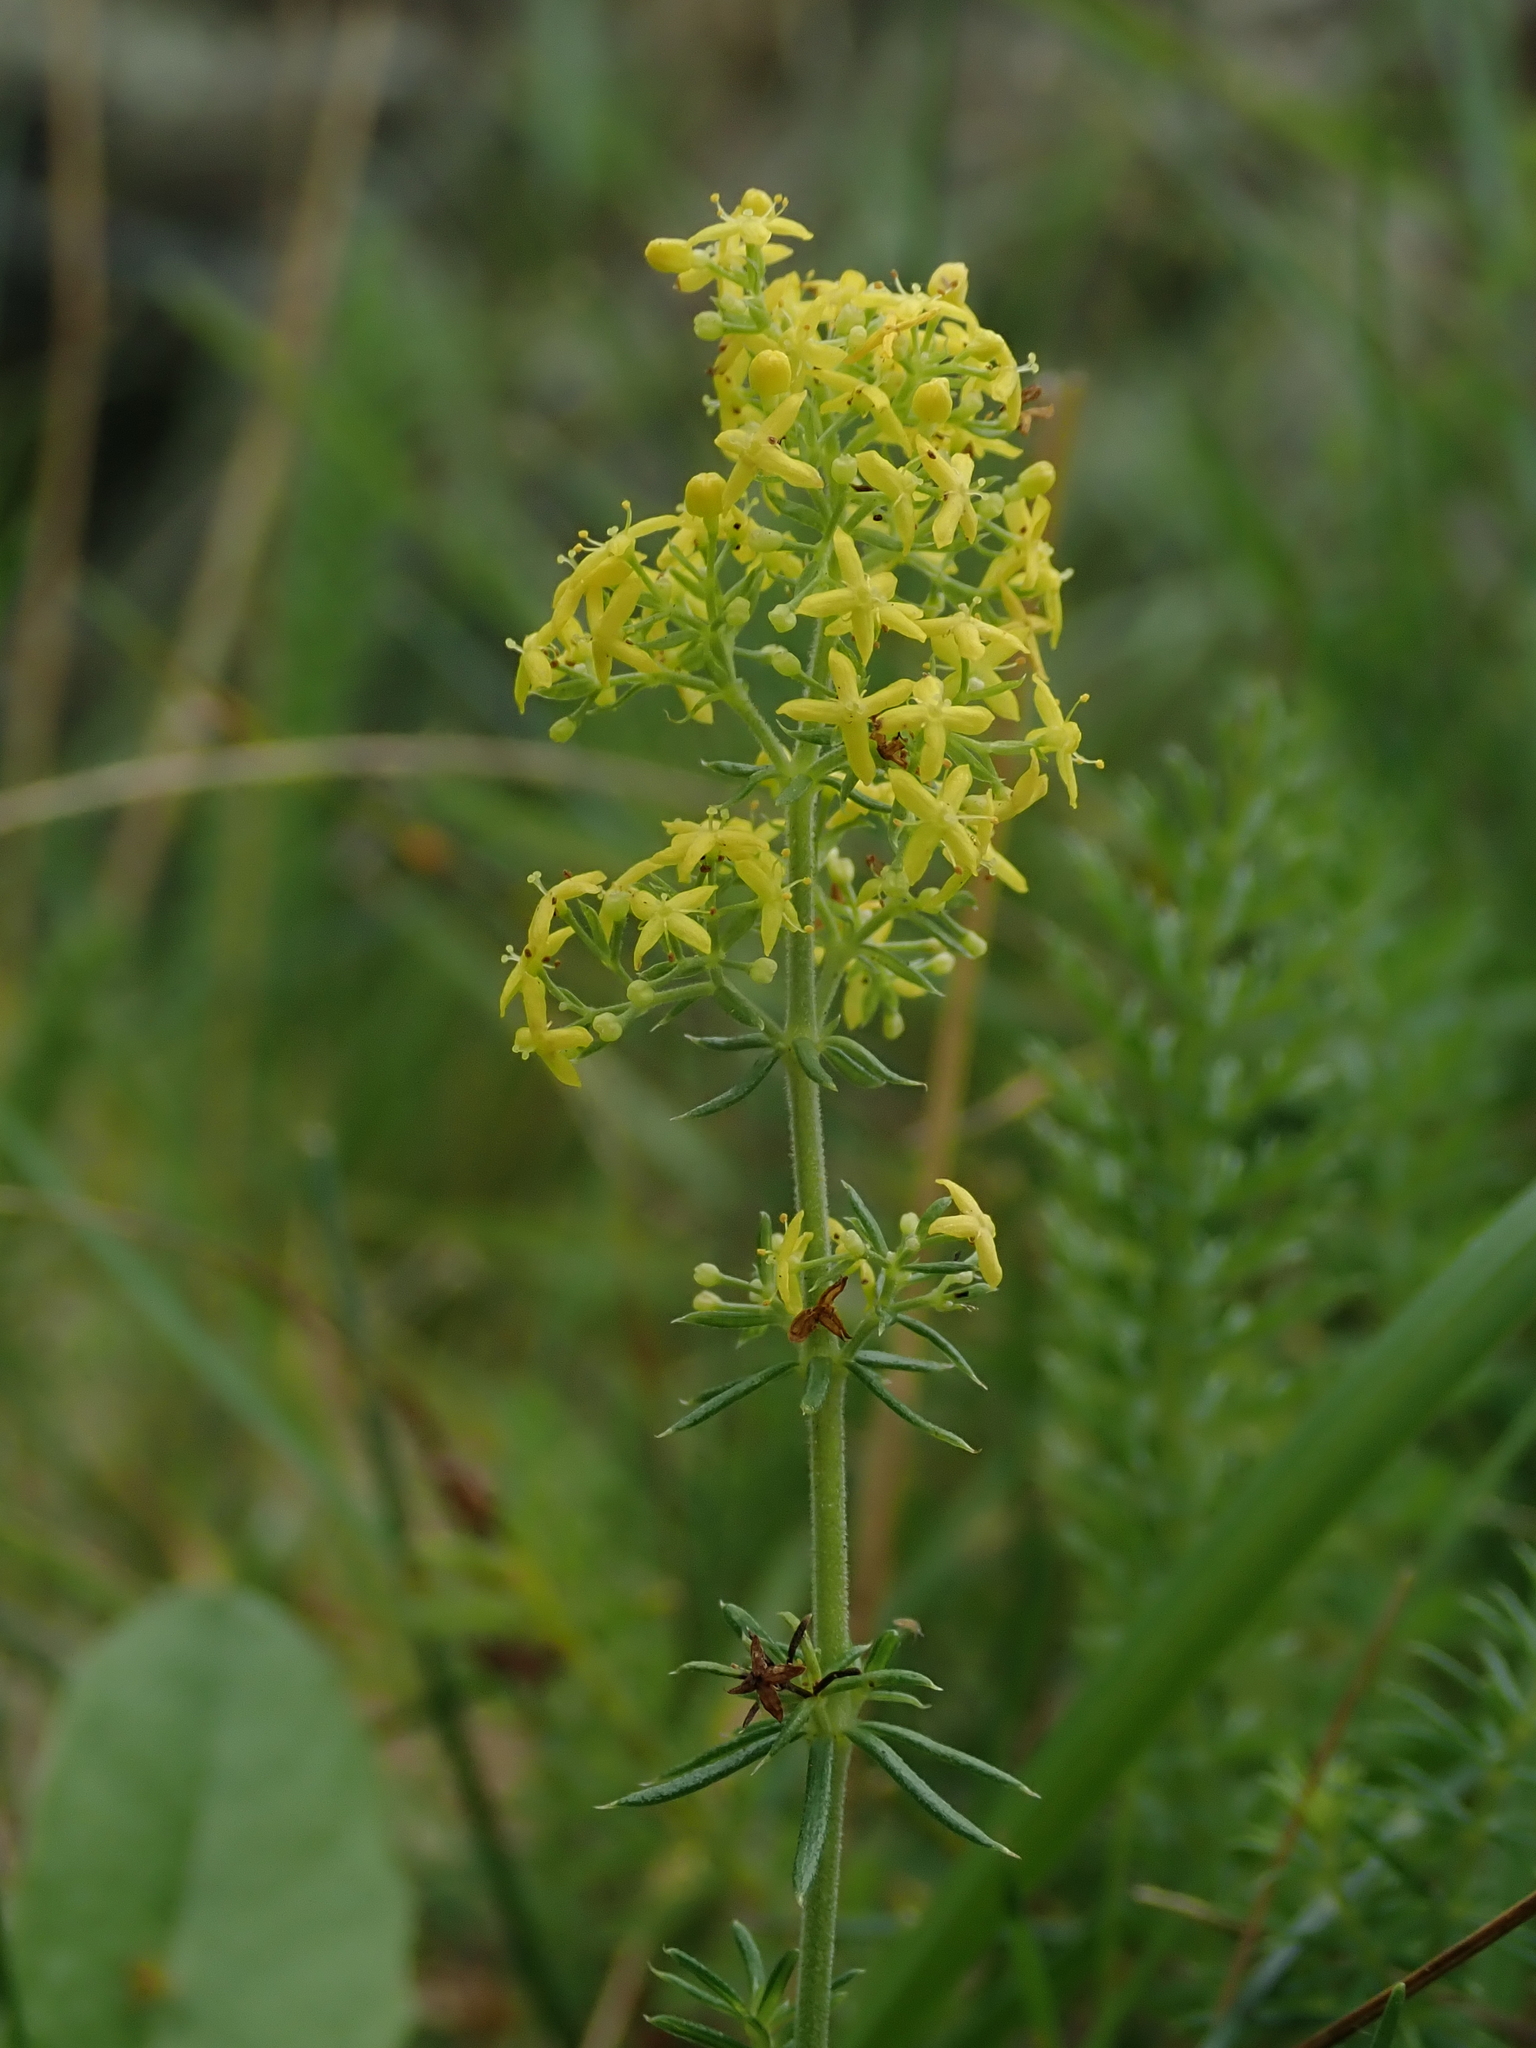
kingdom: Plantae
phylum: Tracheophyta
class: Magnoliopsida
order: Gentianales
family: Rubiaceae
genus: Galium
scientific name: Galium verum
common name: Lady's bedstraw
